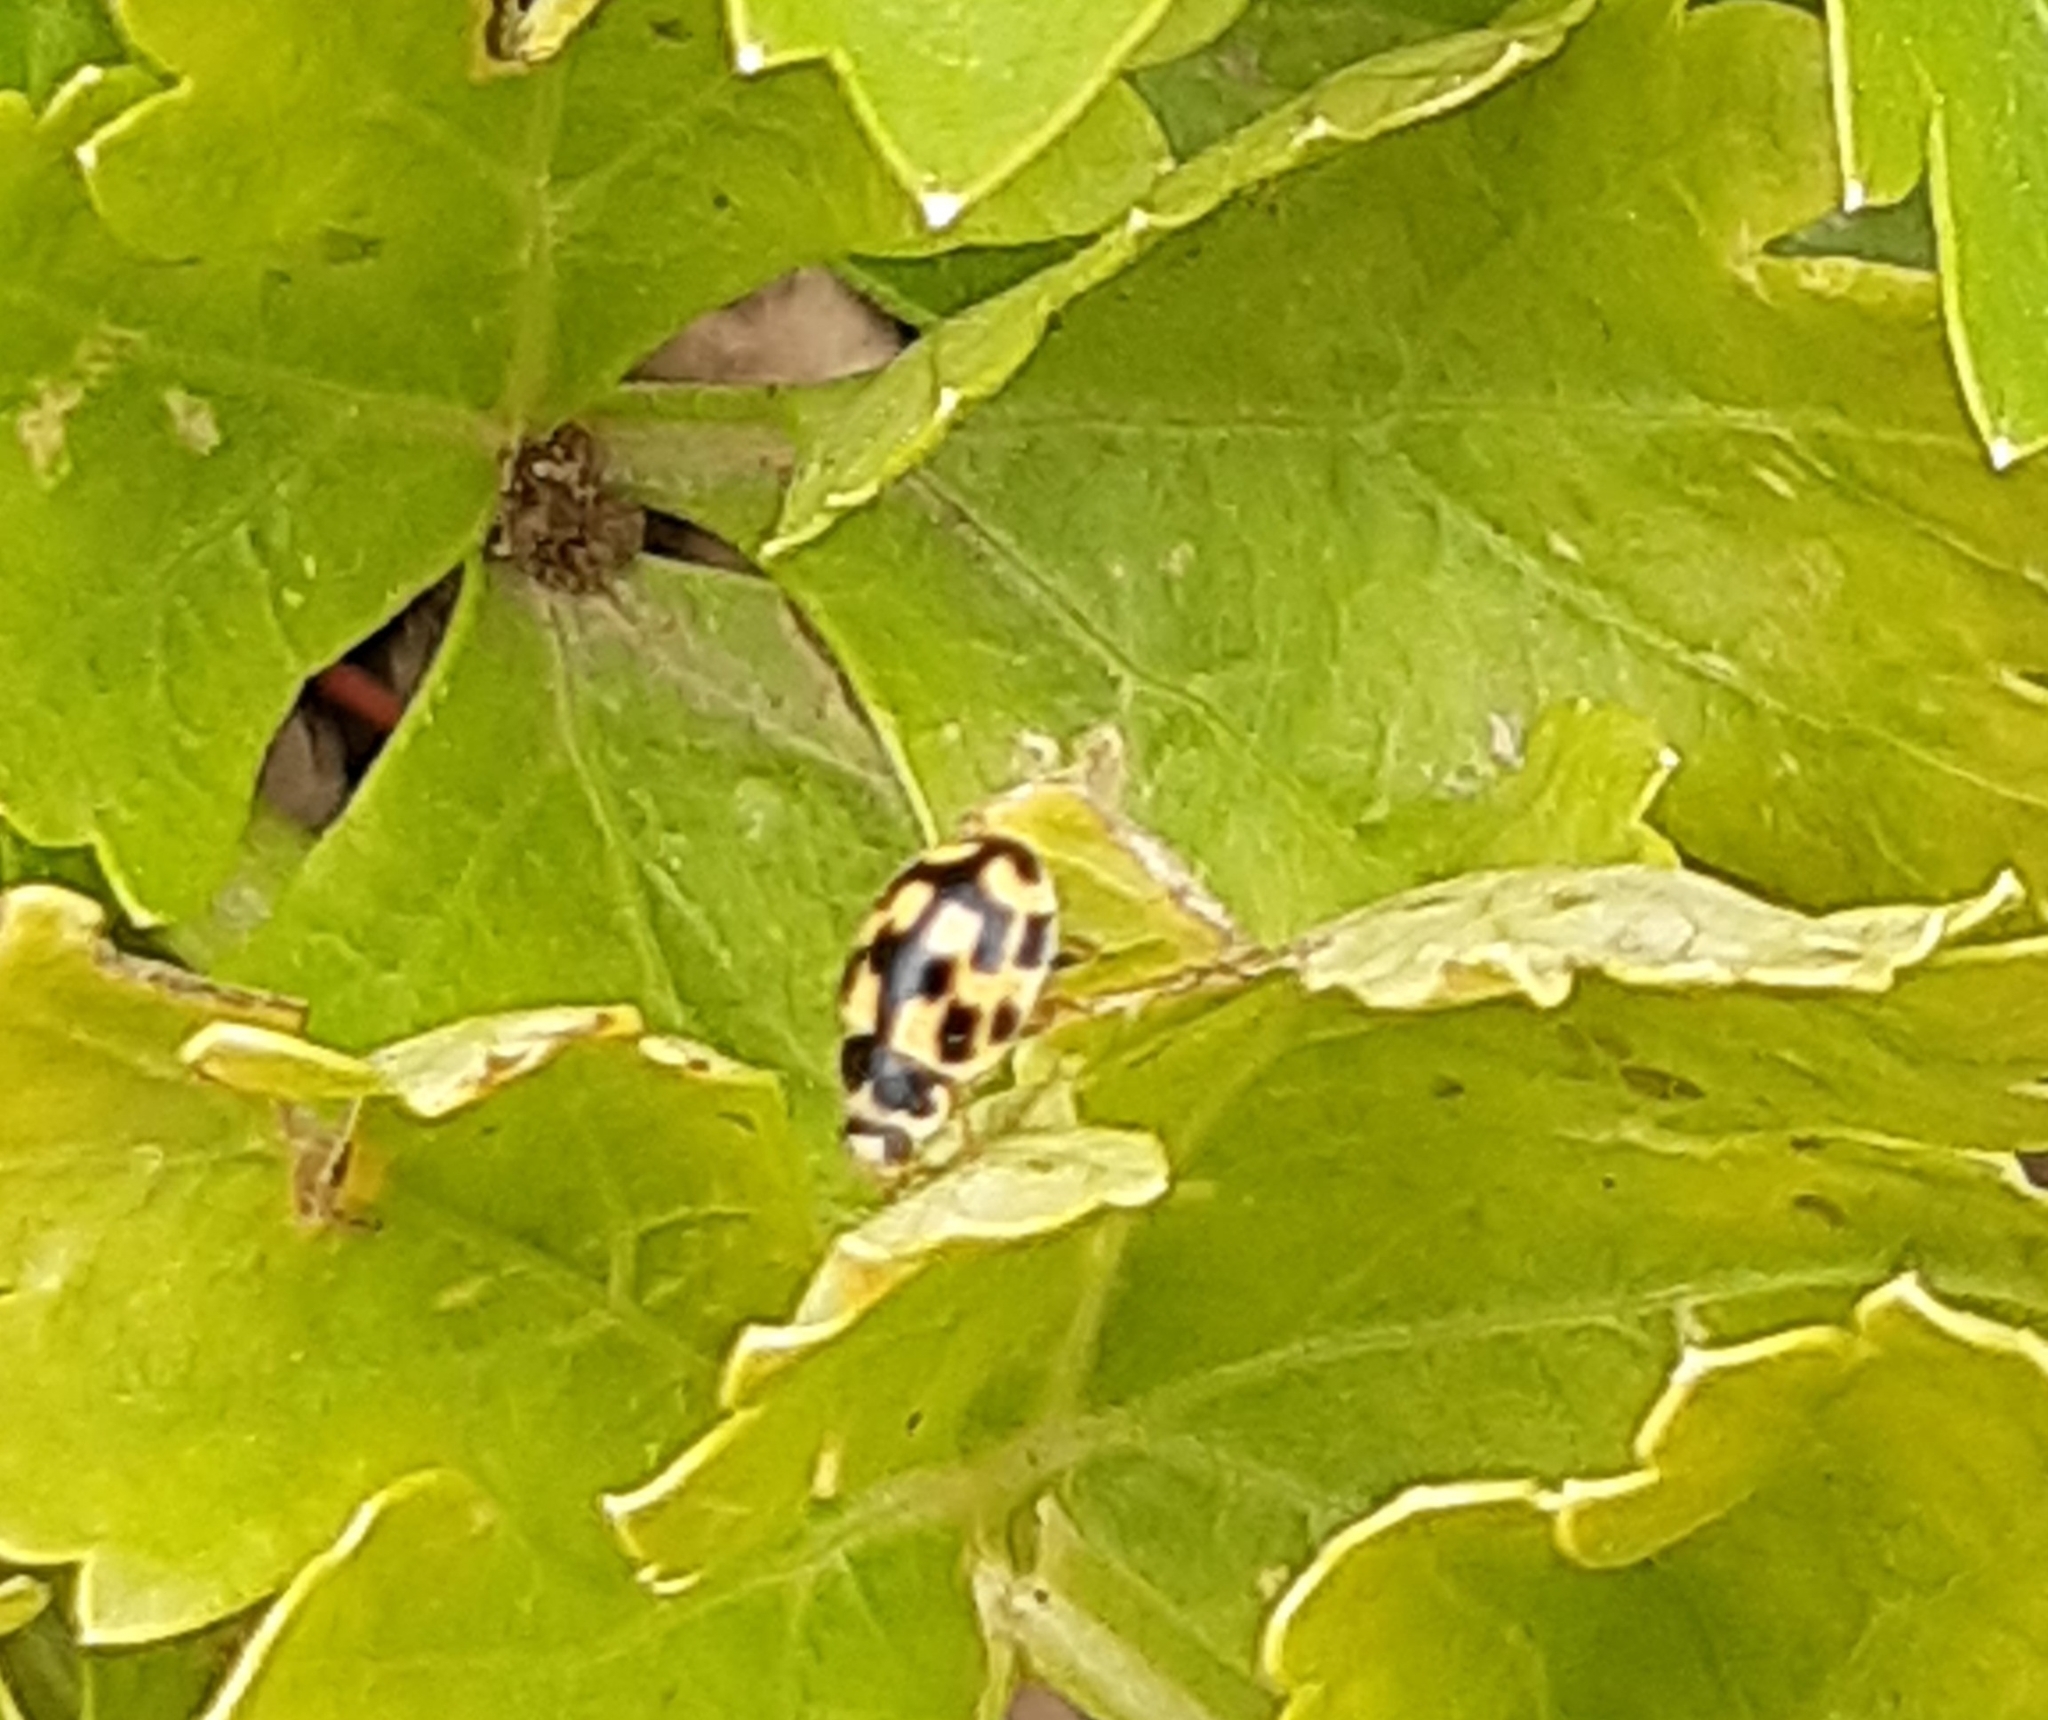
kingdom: Animalia
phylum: Arthropoda
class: Insecta
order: Coleoptera
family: Coccinellidae
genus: Propylaea
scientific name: Propylaea quatuordecimpunctata
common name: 14-spotted ladybird beetle
